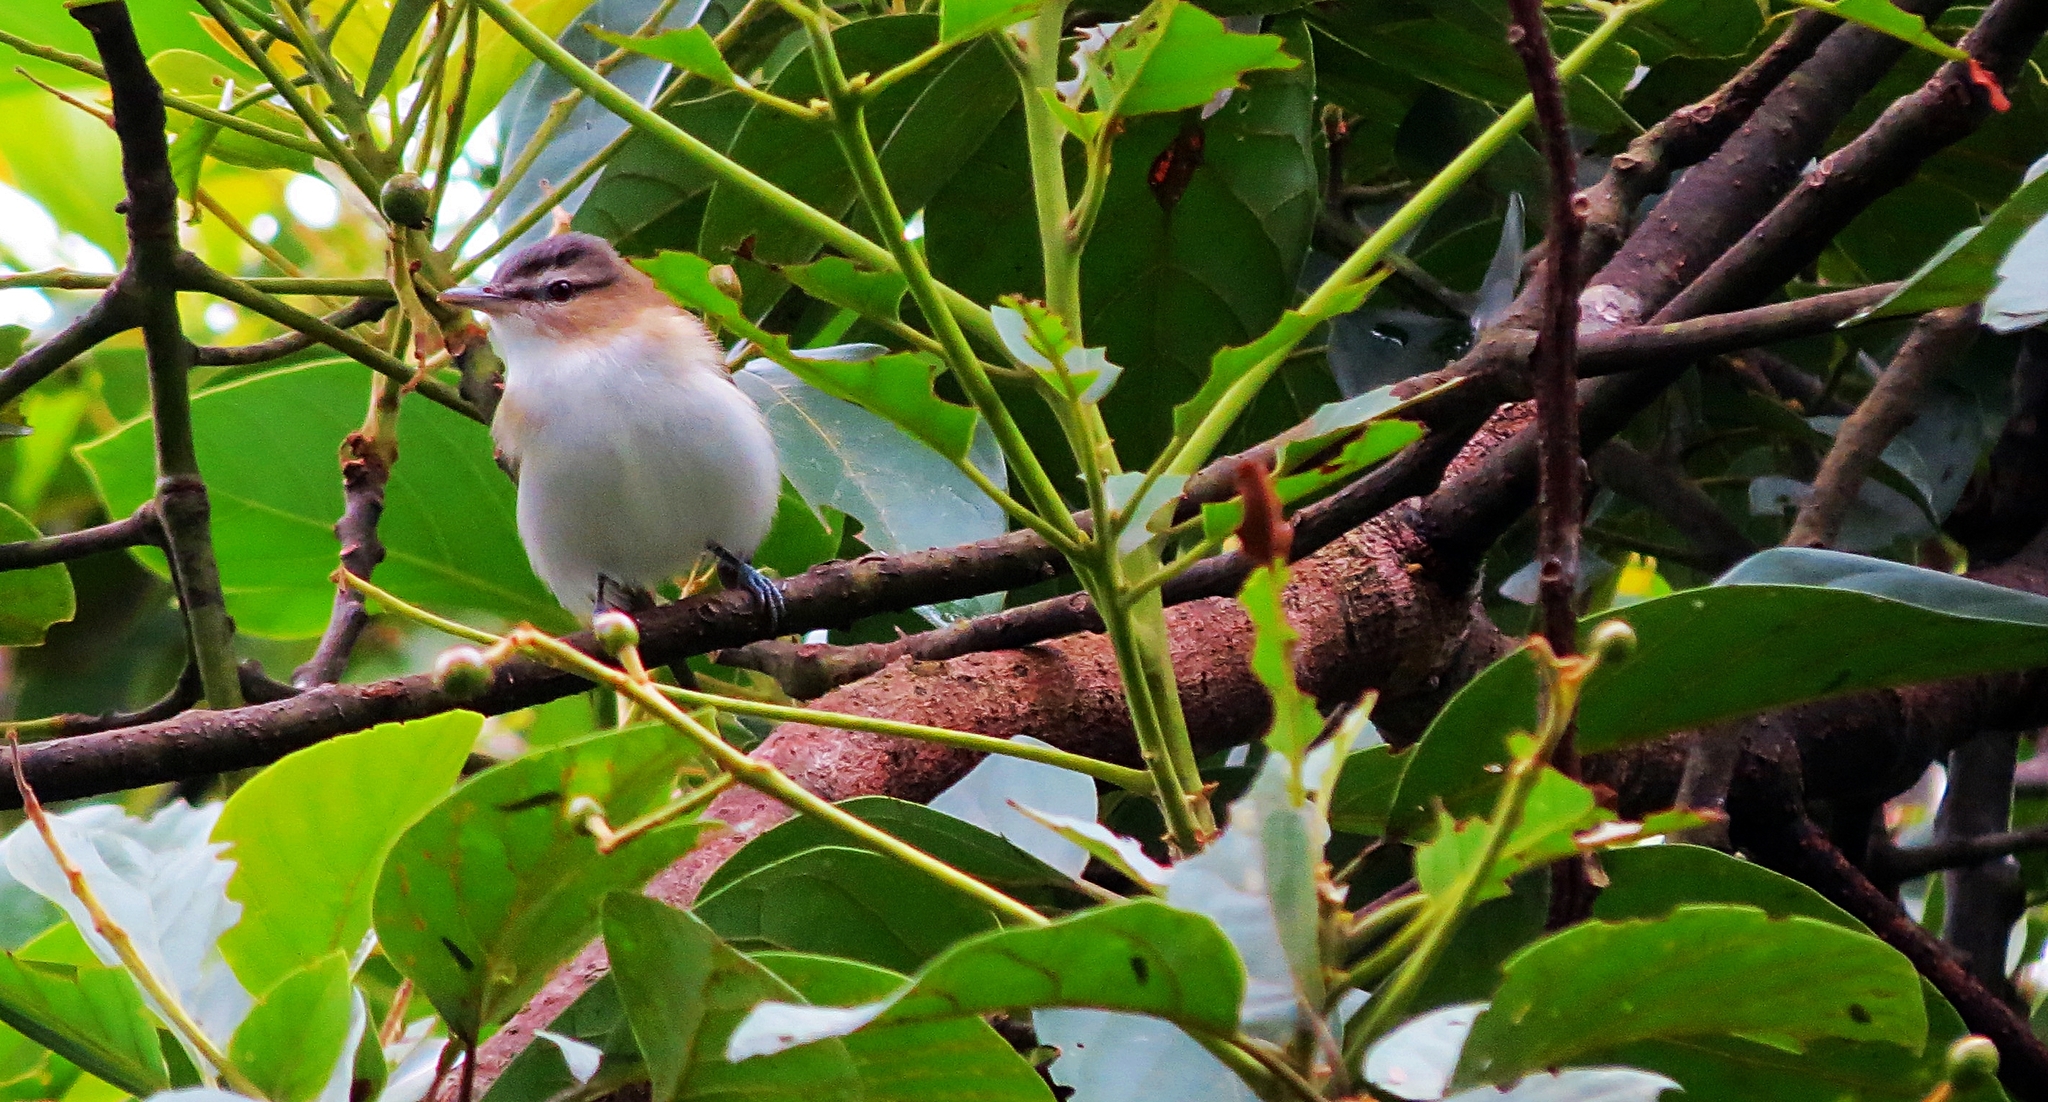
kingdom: Animalia
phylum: Chordata
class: Aves
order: Passeriformes
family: Vireonidae
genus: Vireo
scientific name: Vireo olivaceus
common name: Red-eyed vireo
